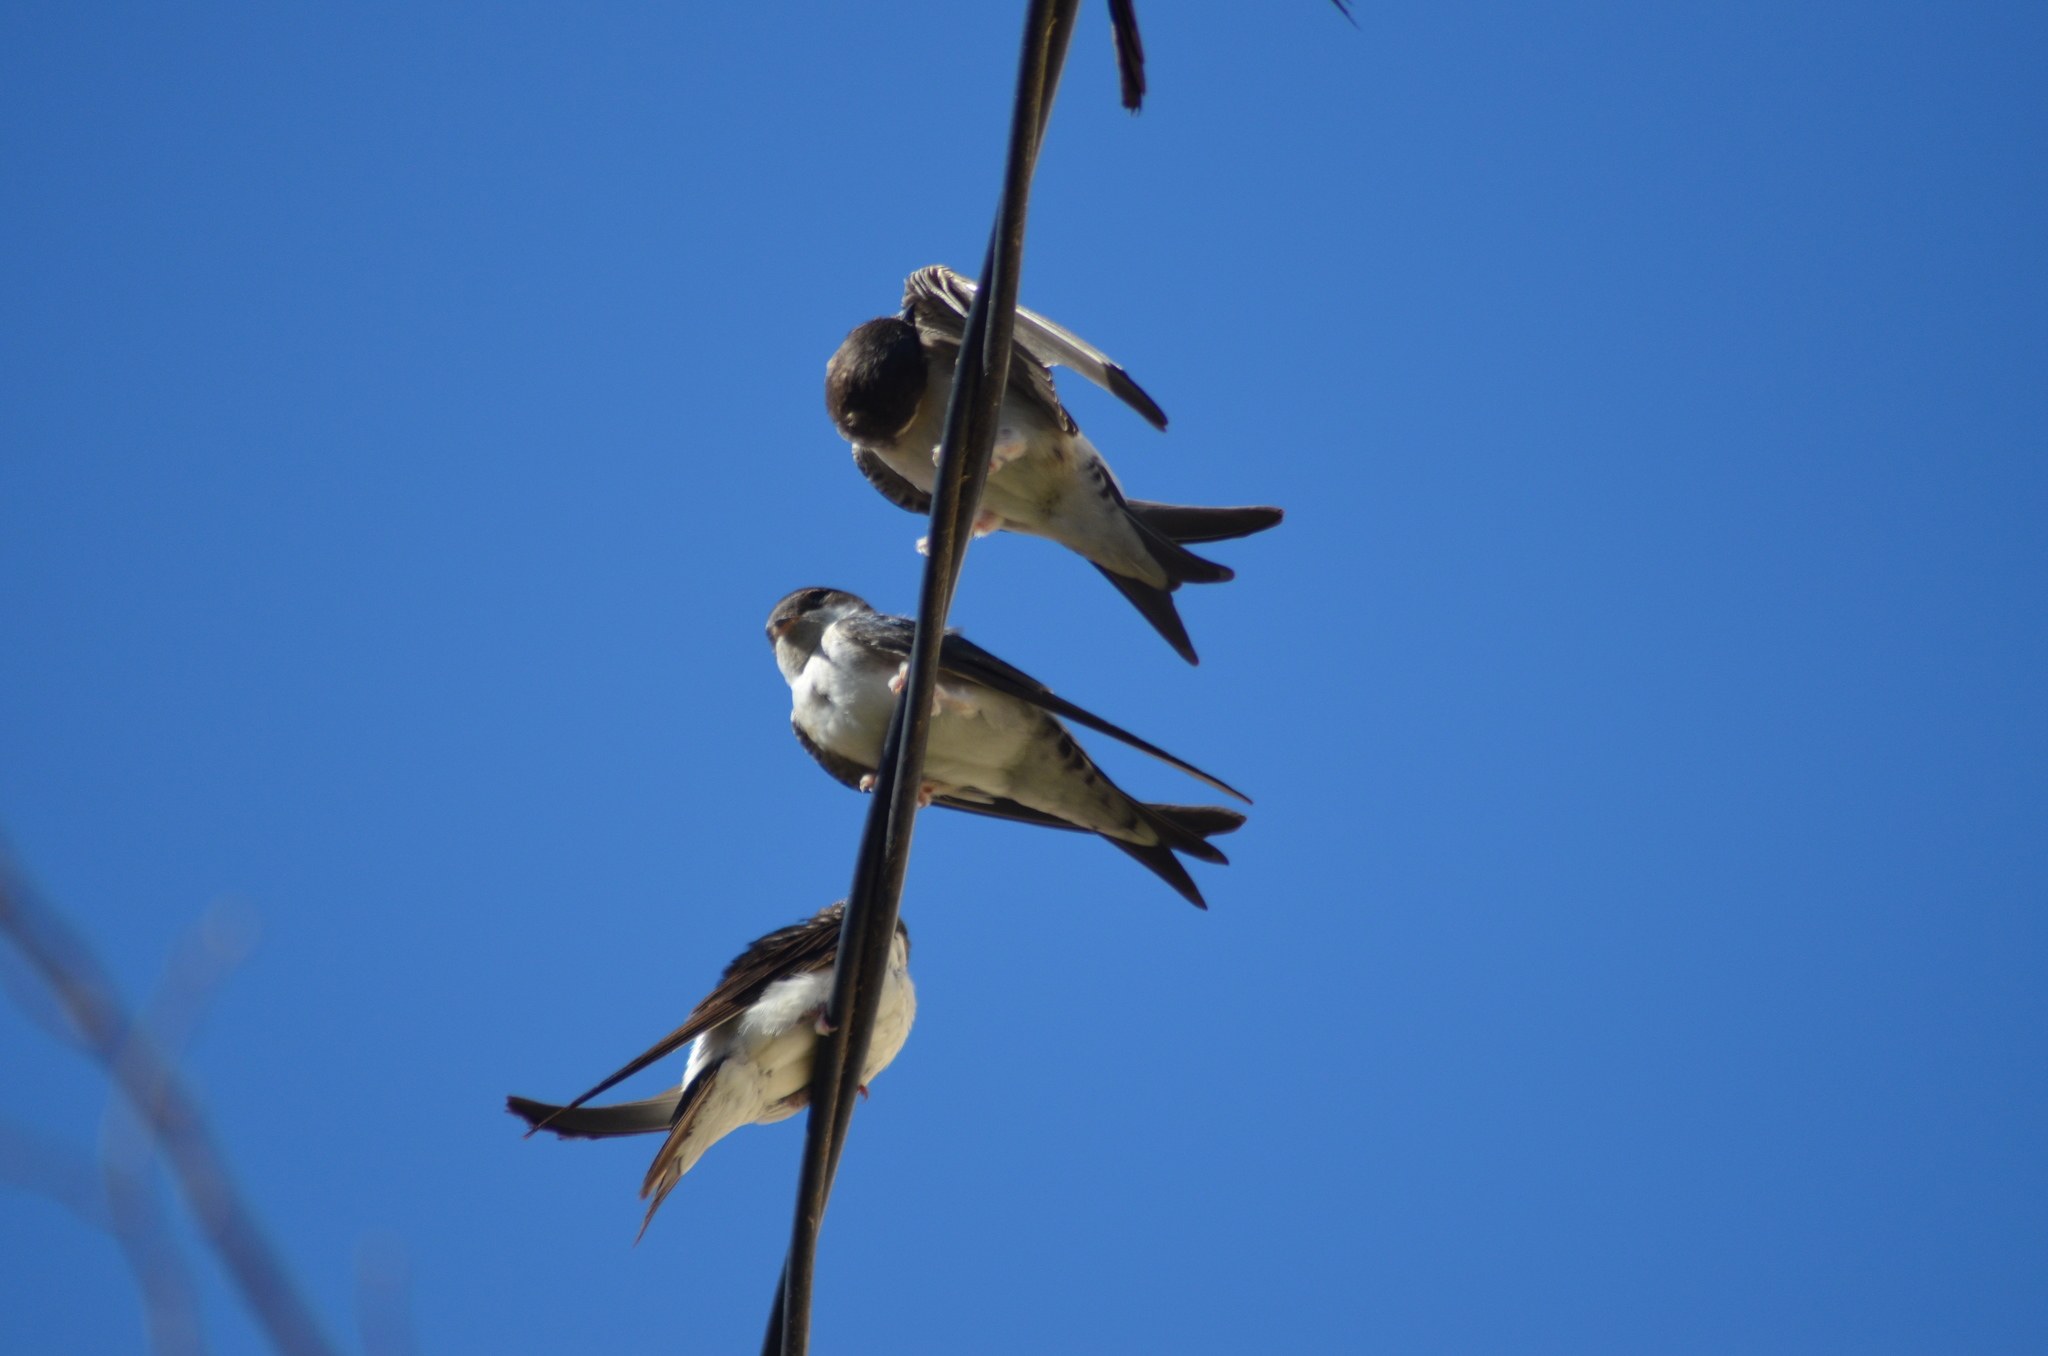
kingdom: Animalia
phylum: Chordata
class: Aves
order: Passeriformes
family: Hirundinidae
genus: Delichon
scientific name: Delichon urbicum
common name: Common house martin
